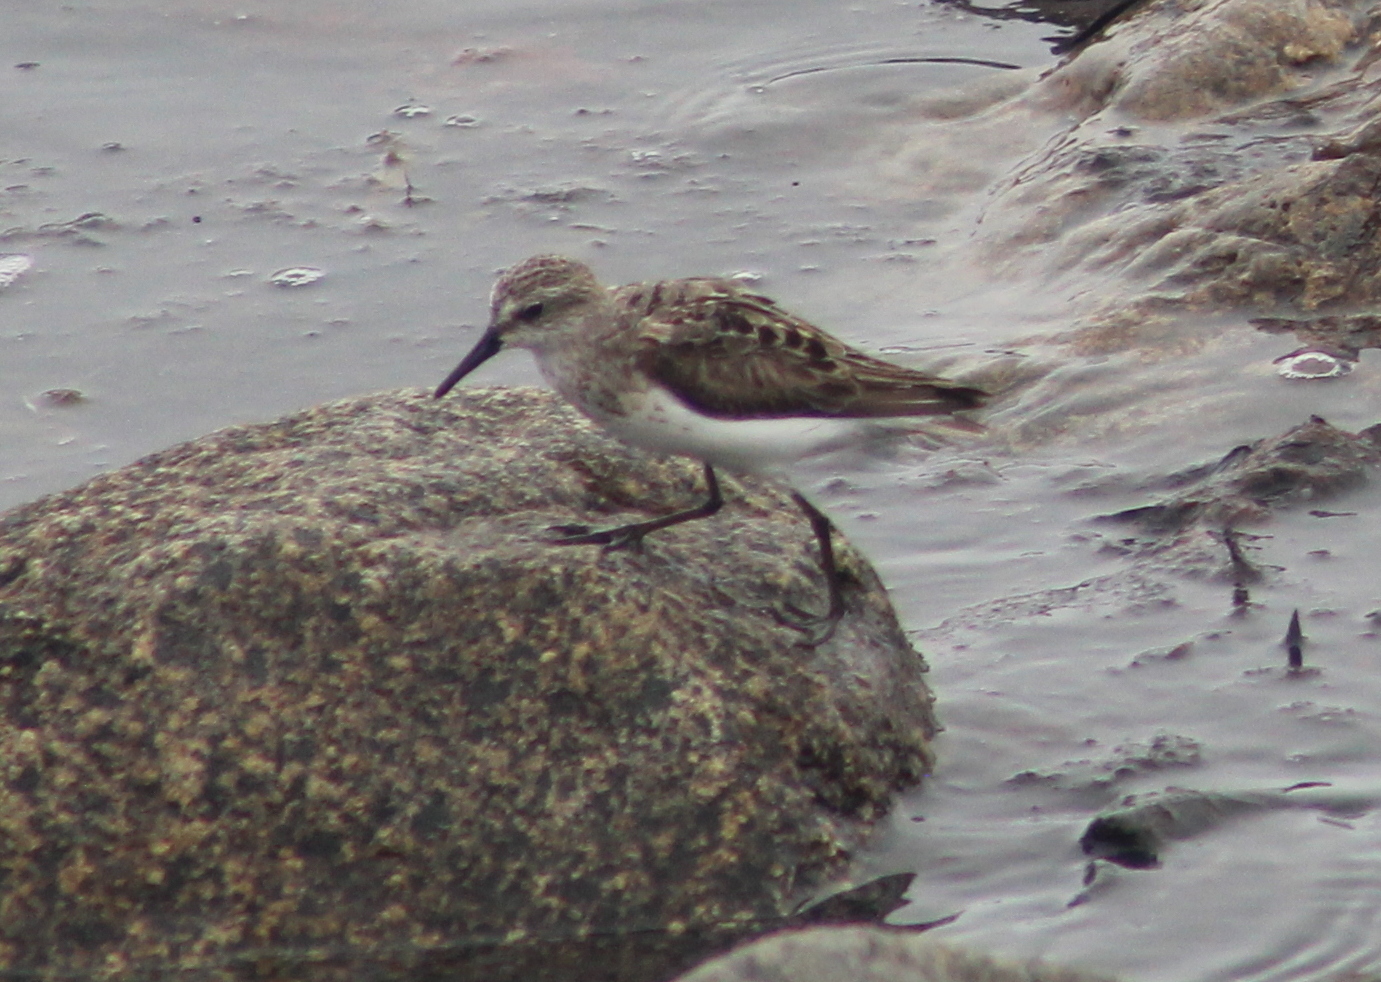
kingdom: Animalia
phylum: Chordata
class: Aves
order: Charadriiformes
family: Scolopacidae
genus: Calidris
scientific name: Calidris pusilla
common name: Semipalmated sandpiper
